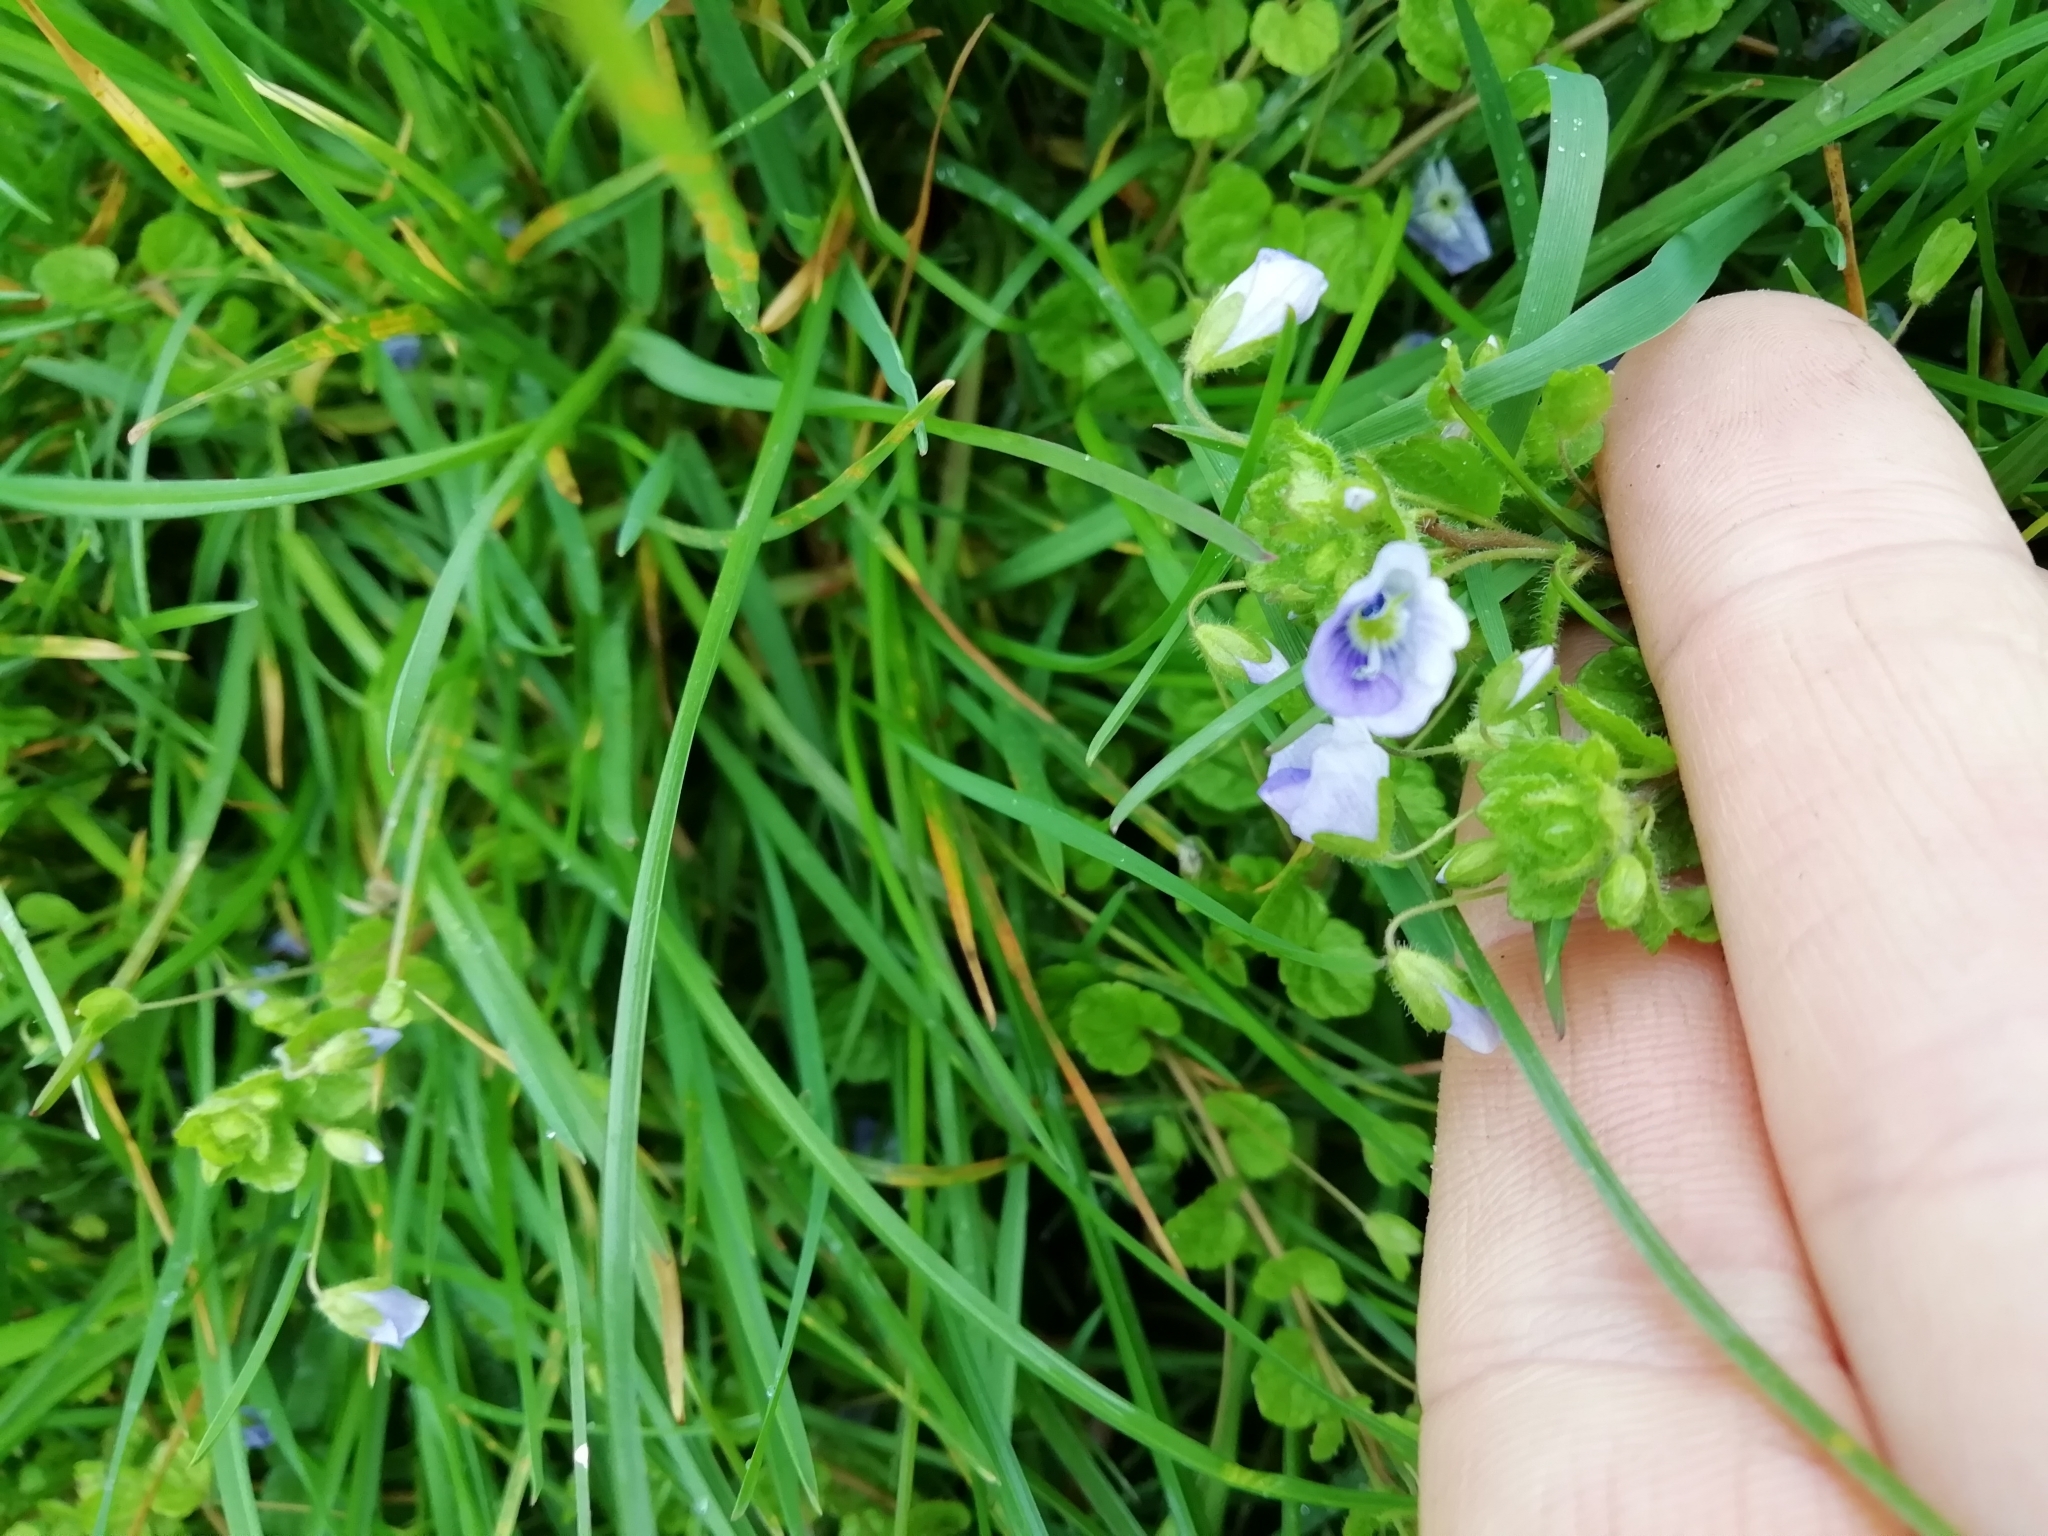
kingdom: Plantae
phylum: Tracheophyta
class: Magnoliopsida
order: Lamiales
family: Plantaginaceae
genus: Veronica
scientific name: Veronica filiformis
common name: Slender speedwell
